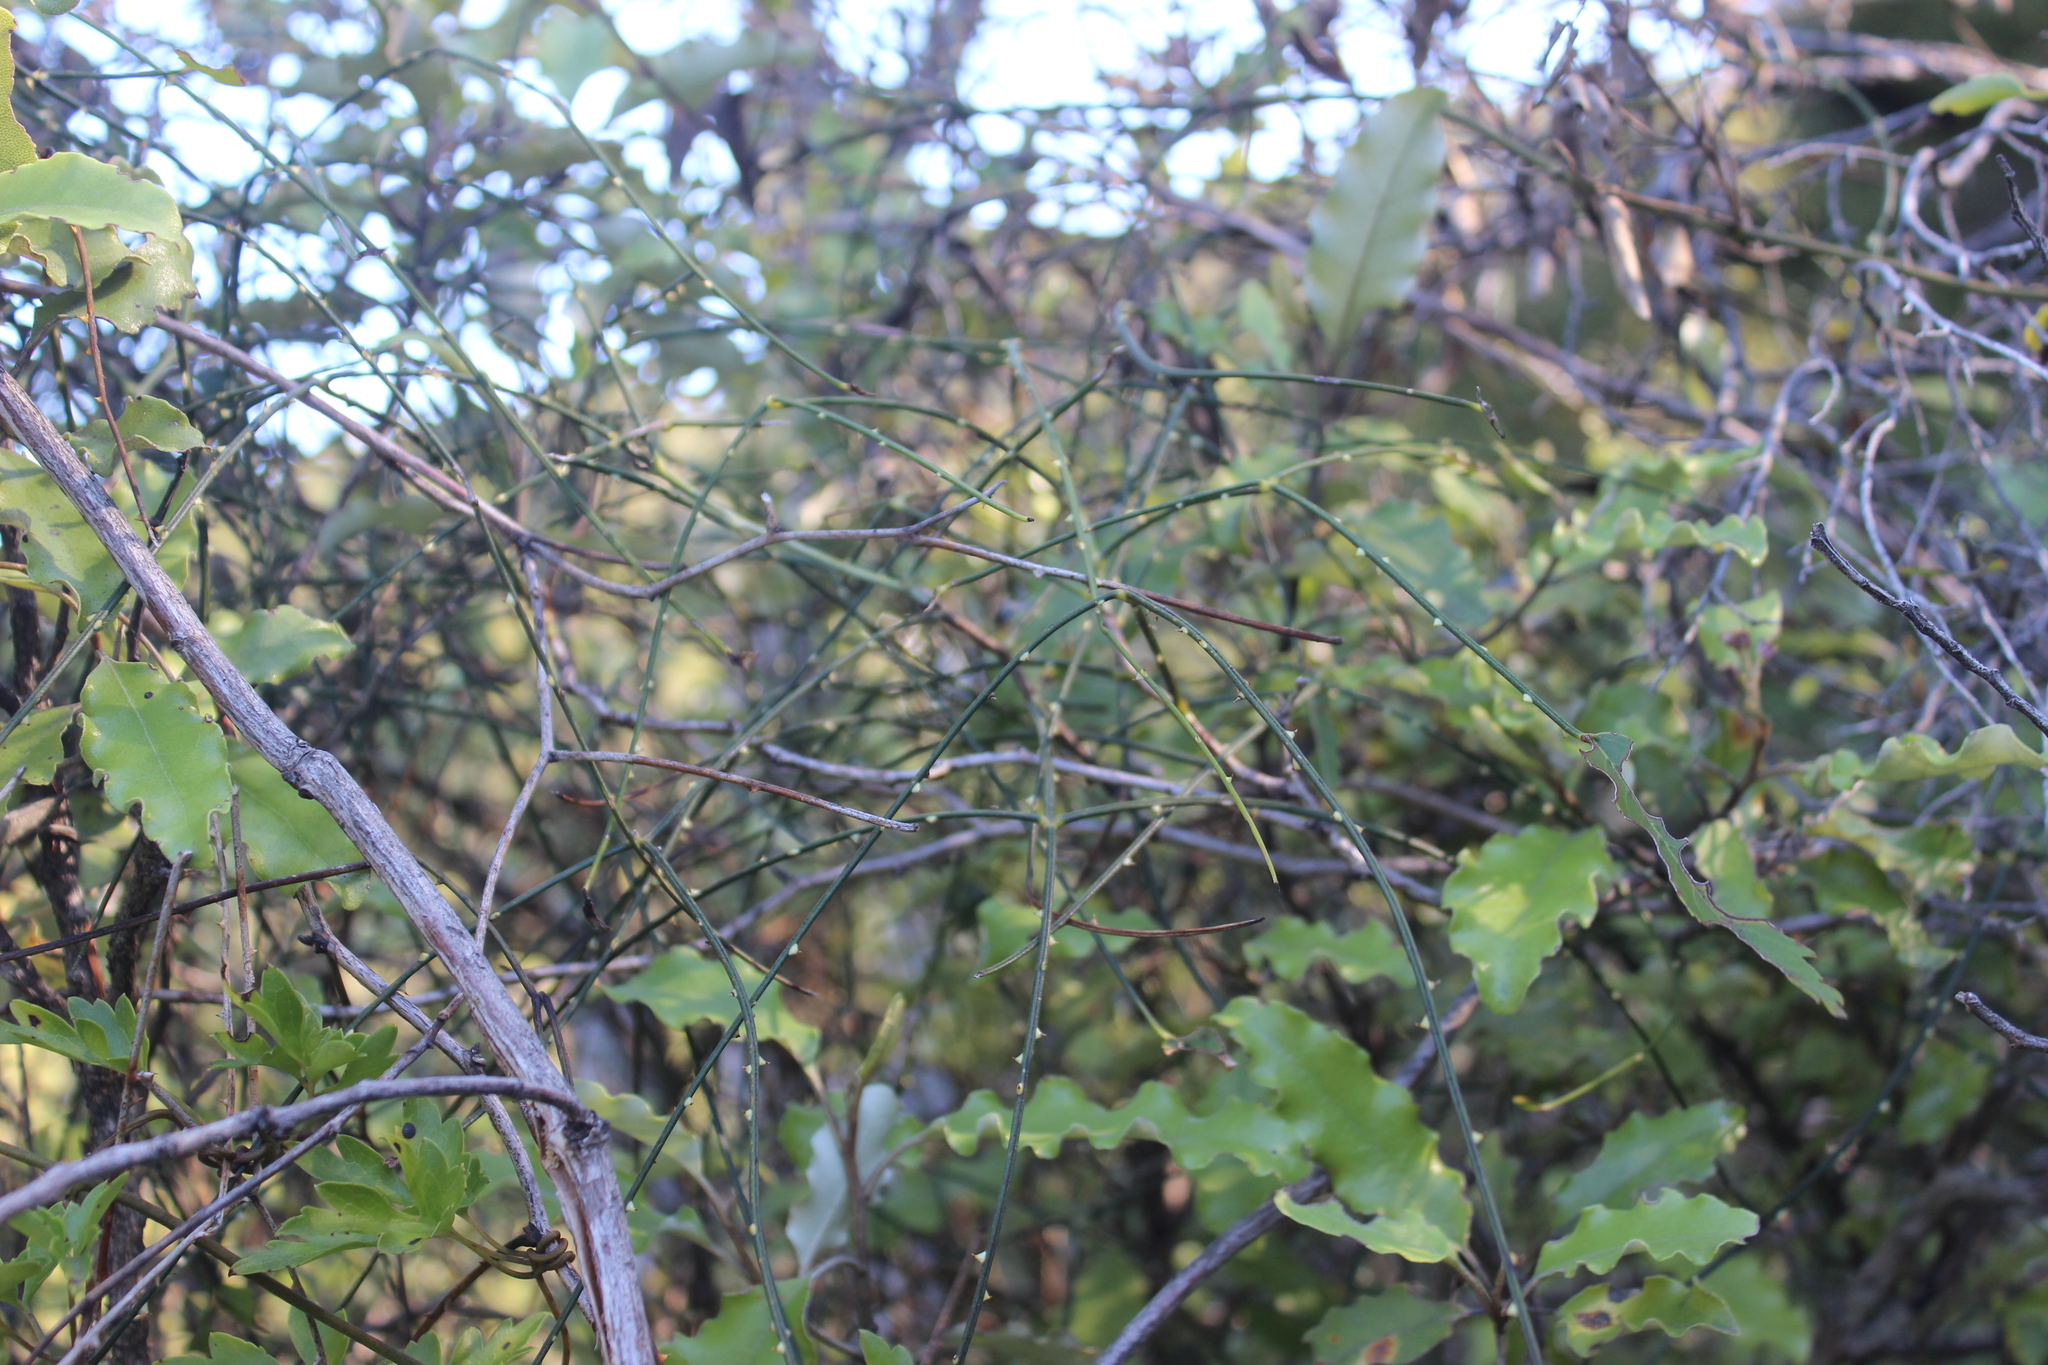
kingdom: Plantae
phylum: Tracheophyta
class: Magnoliopsida
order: Rosales
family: Rosaceae
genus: Rubus
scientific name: Rubus squarrosus
